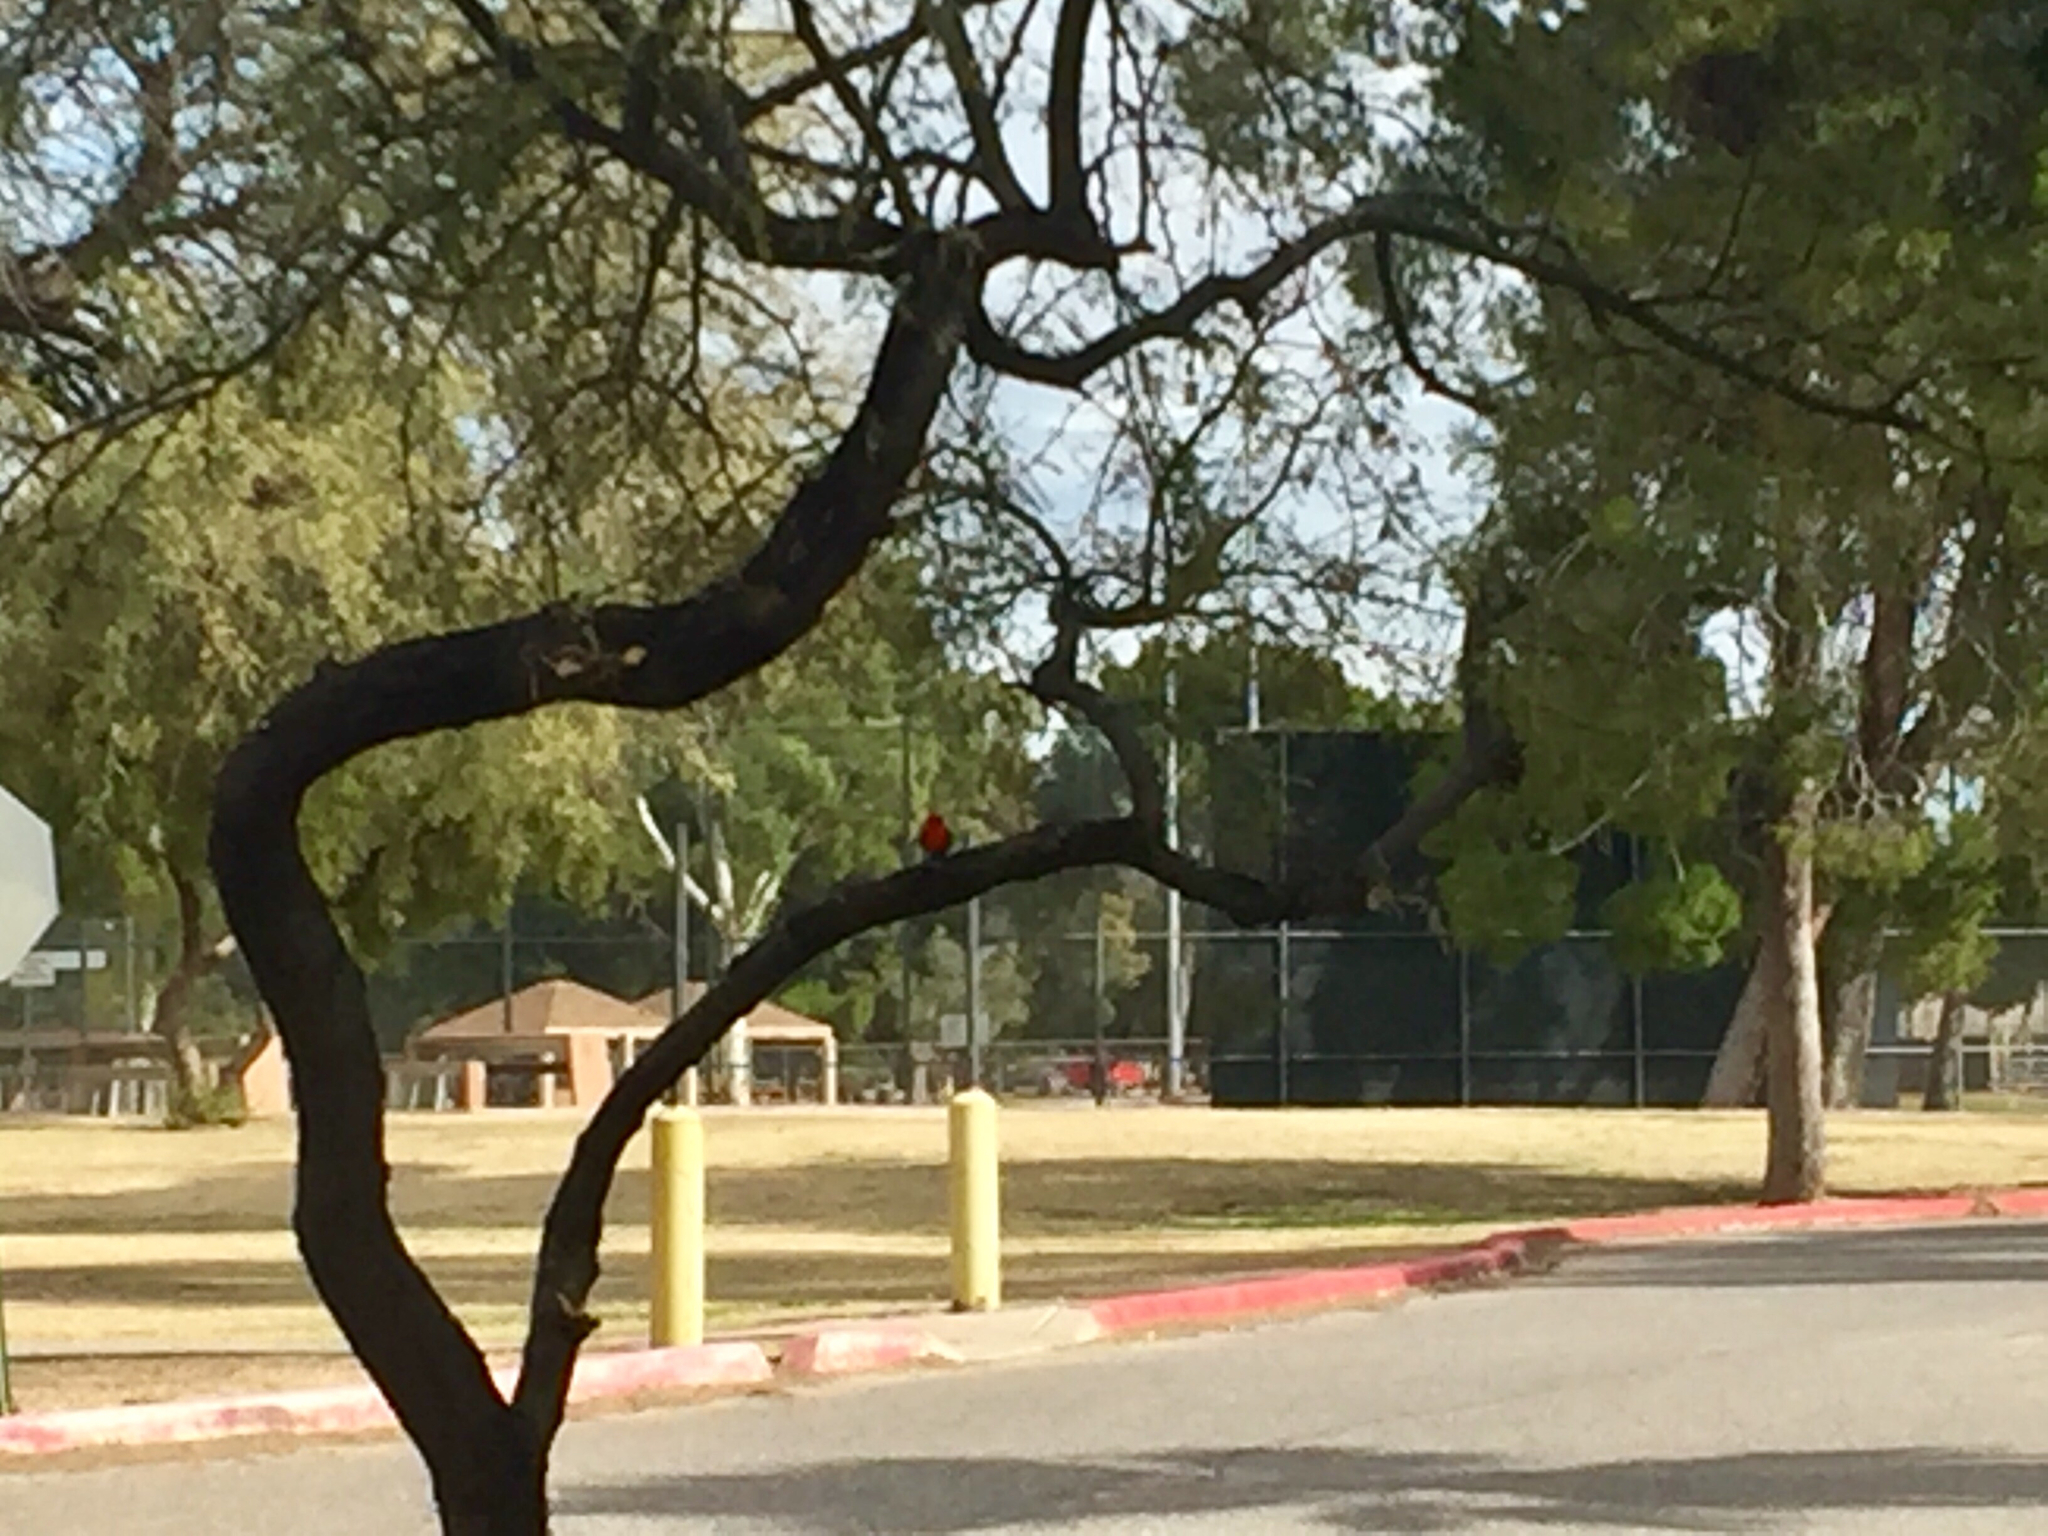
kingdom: Animalia
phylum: Chordata
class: Aves
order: Passeriformes
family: Tyrannidae
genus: Pyrocephalus
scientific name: Pyrocephalus rubinus
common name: Vermilion flycatcher
